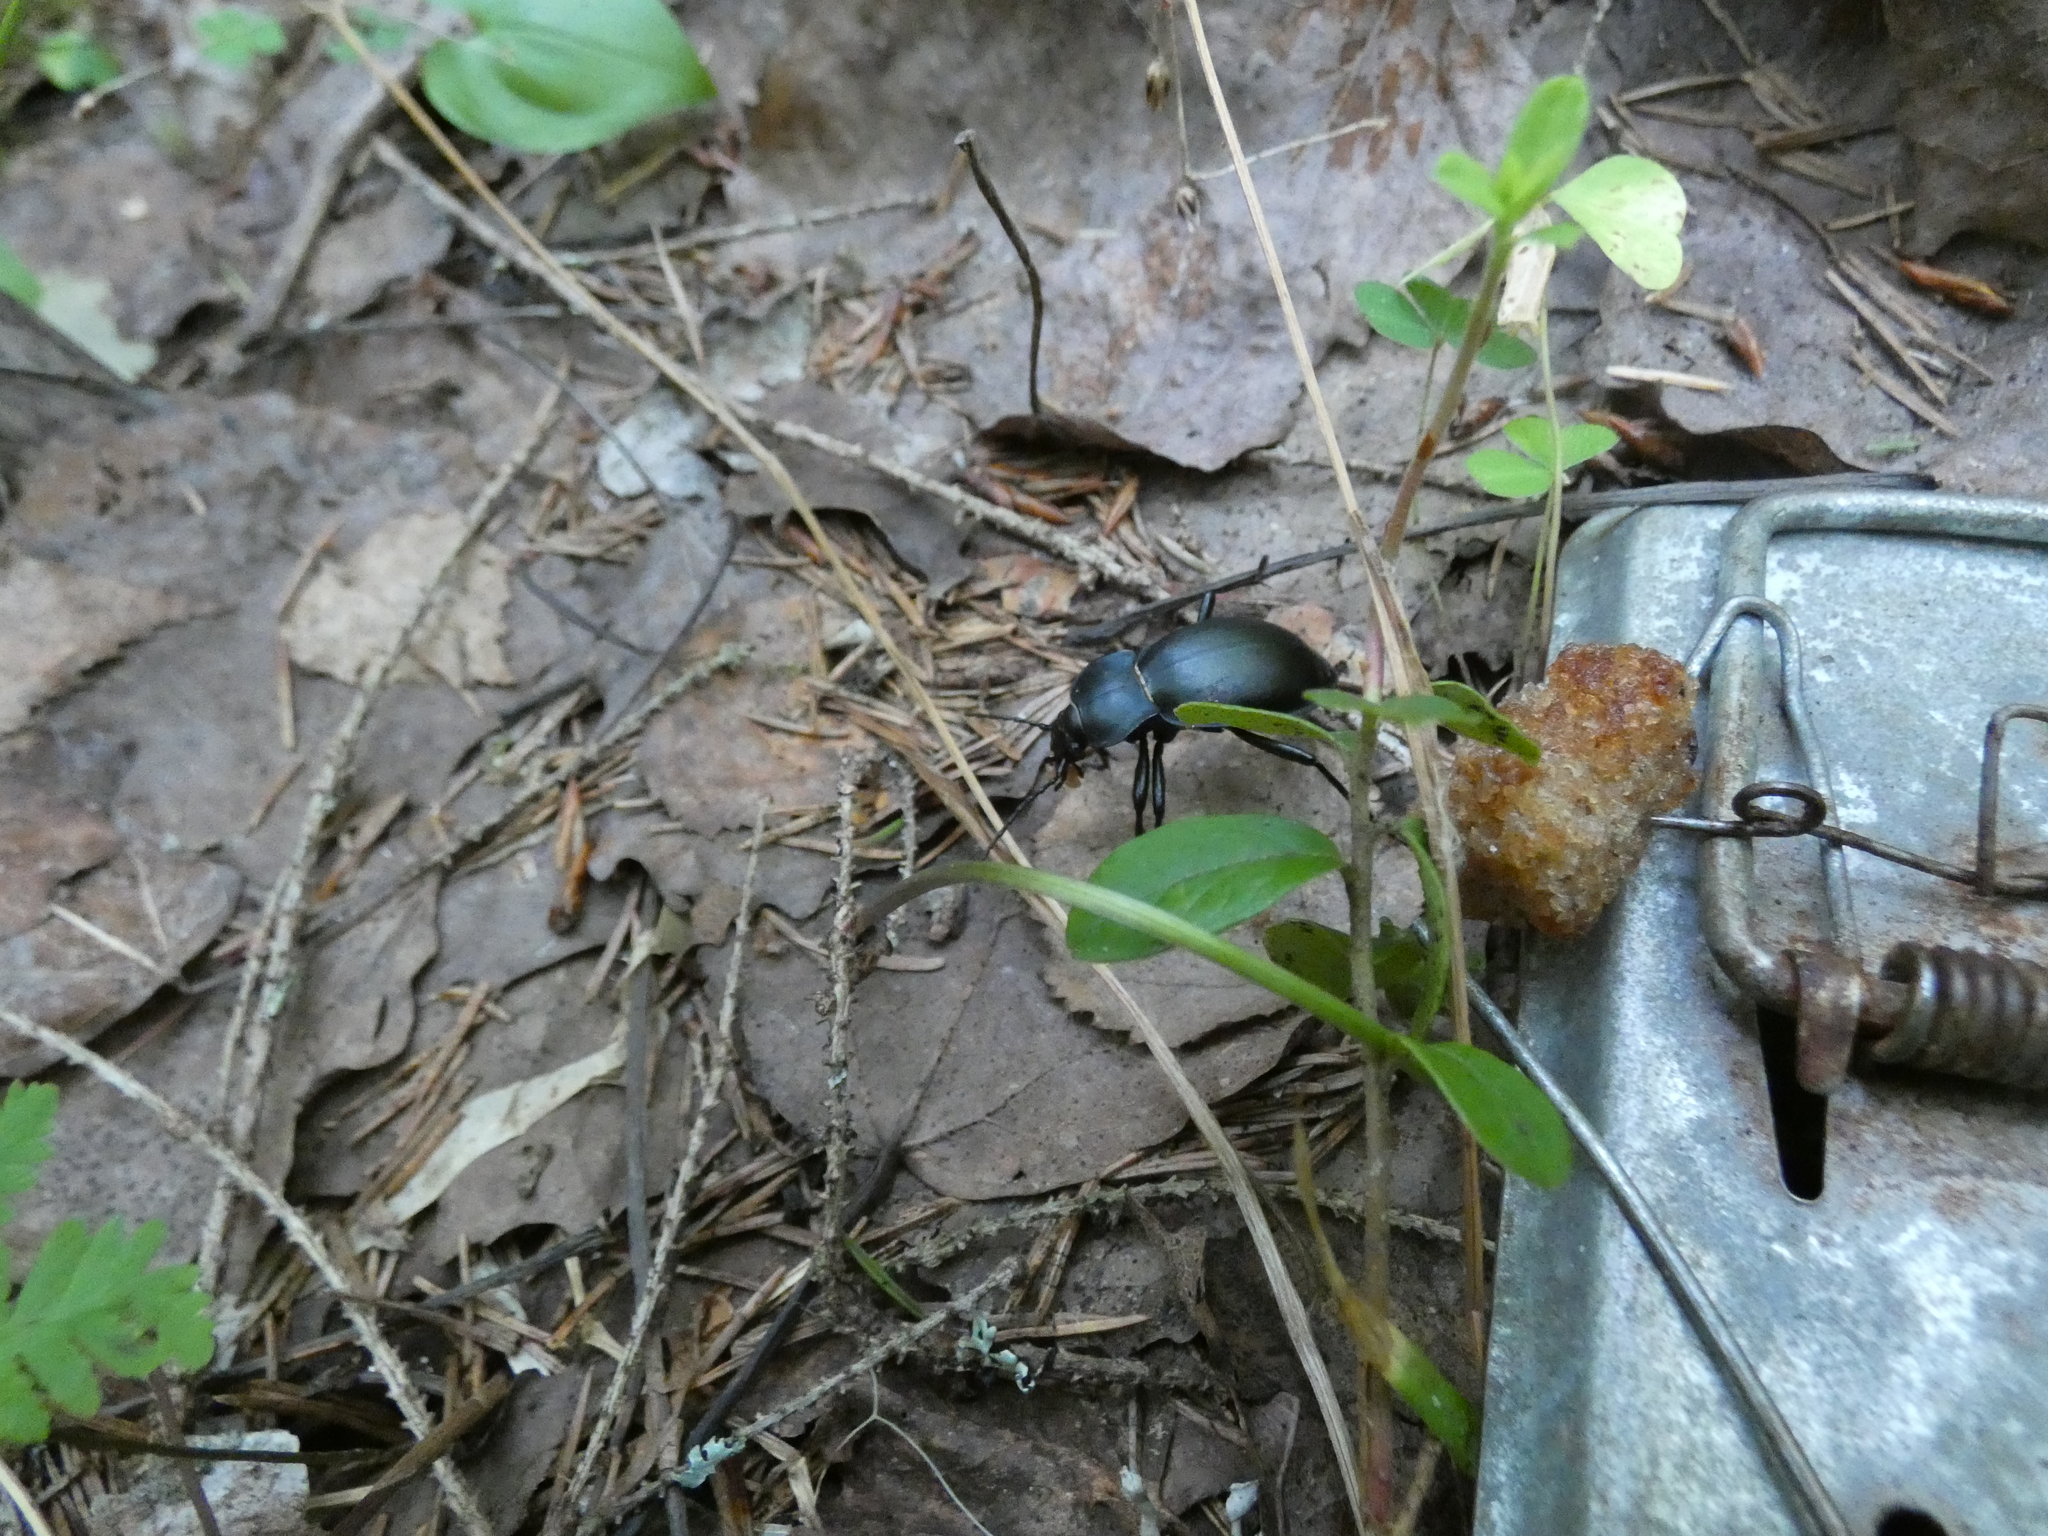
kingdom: Animalia
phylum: Arthropoda
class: Insecta
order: Coleoptera
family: Carabidae
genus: Carabus
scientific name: Carabus glabratus
